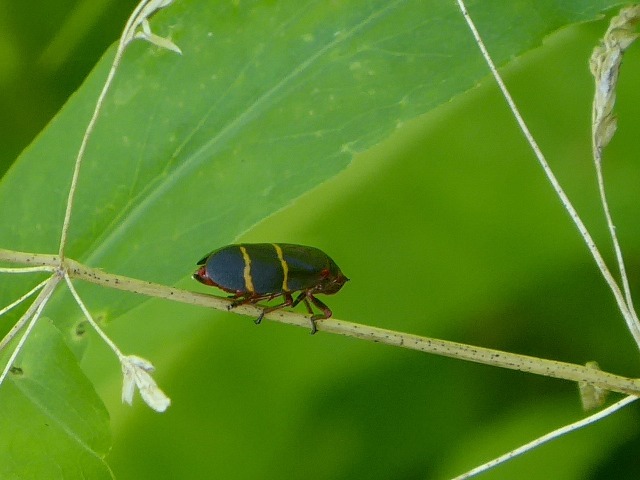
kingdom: Animalia
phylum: Arthropoda
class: Insecta
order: Hemiptera
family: Cercopidae
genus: Prosapia
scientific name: Prosapia bicincta
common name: Twolined spittlebug
